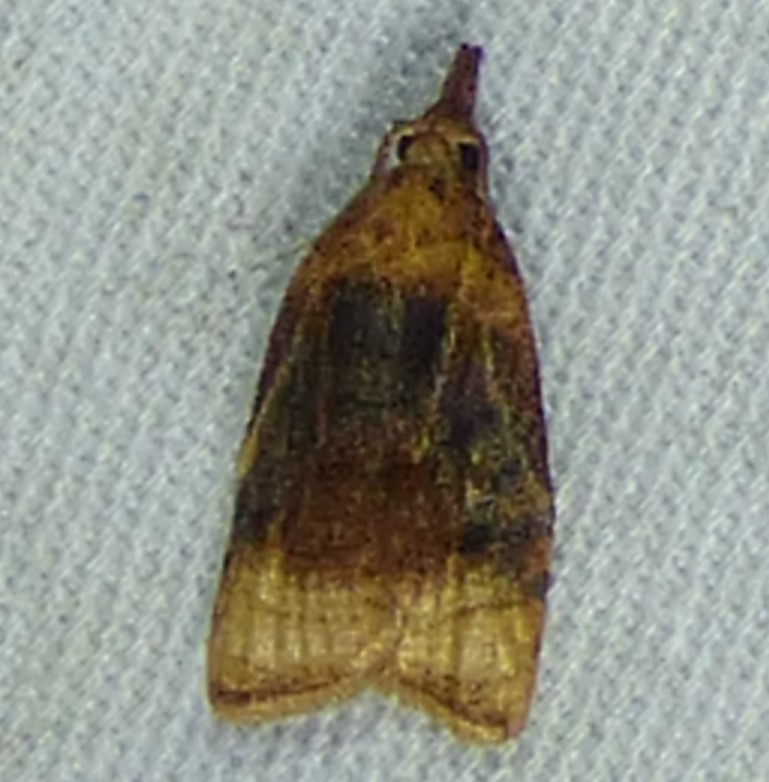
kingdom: Animalia
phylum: Arthropoda
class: Insecta
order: Lepidoptera
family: Tortricidae
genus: Platynota
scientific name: Platynota flavedana
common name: Black-shaded platynota moth
